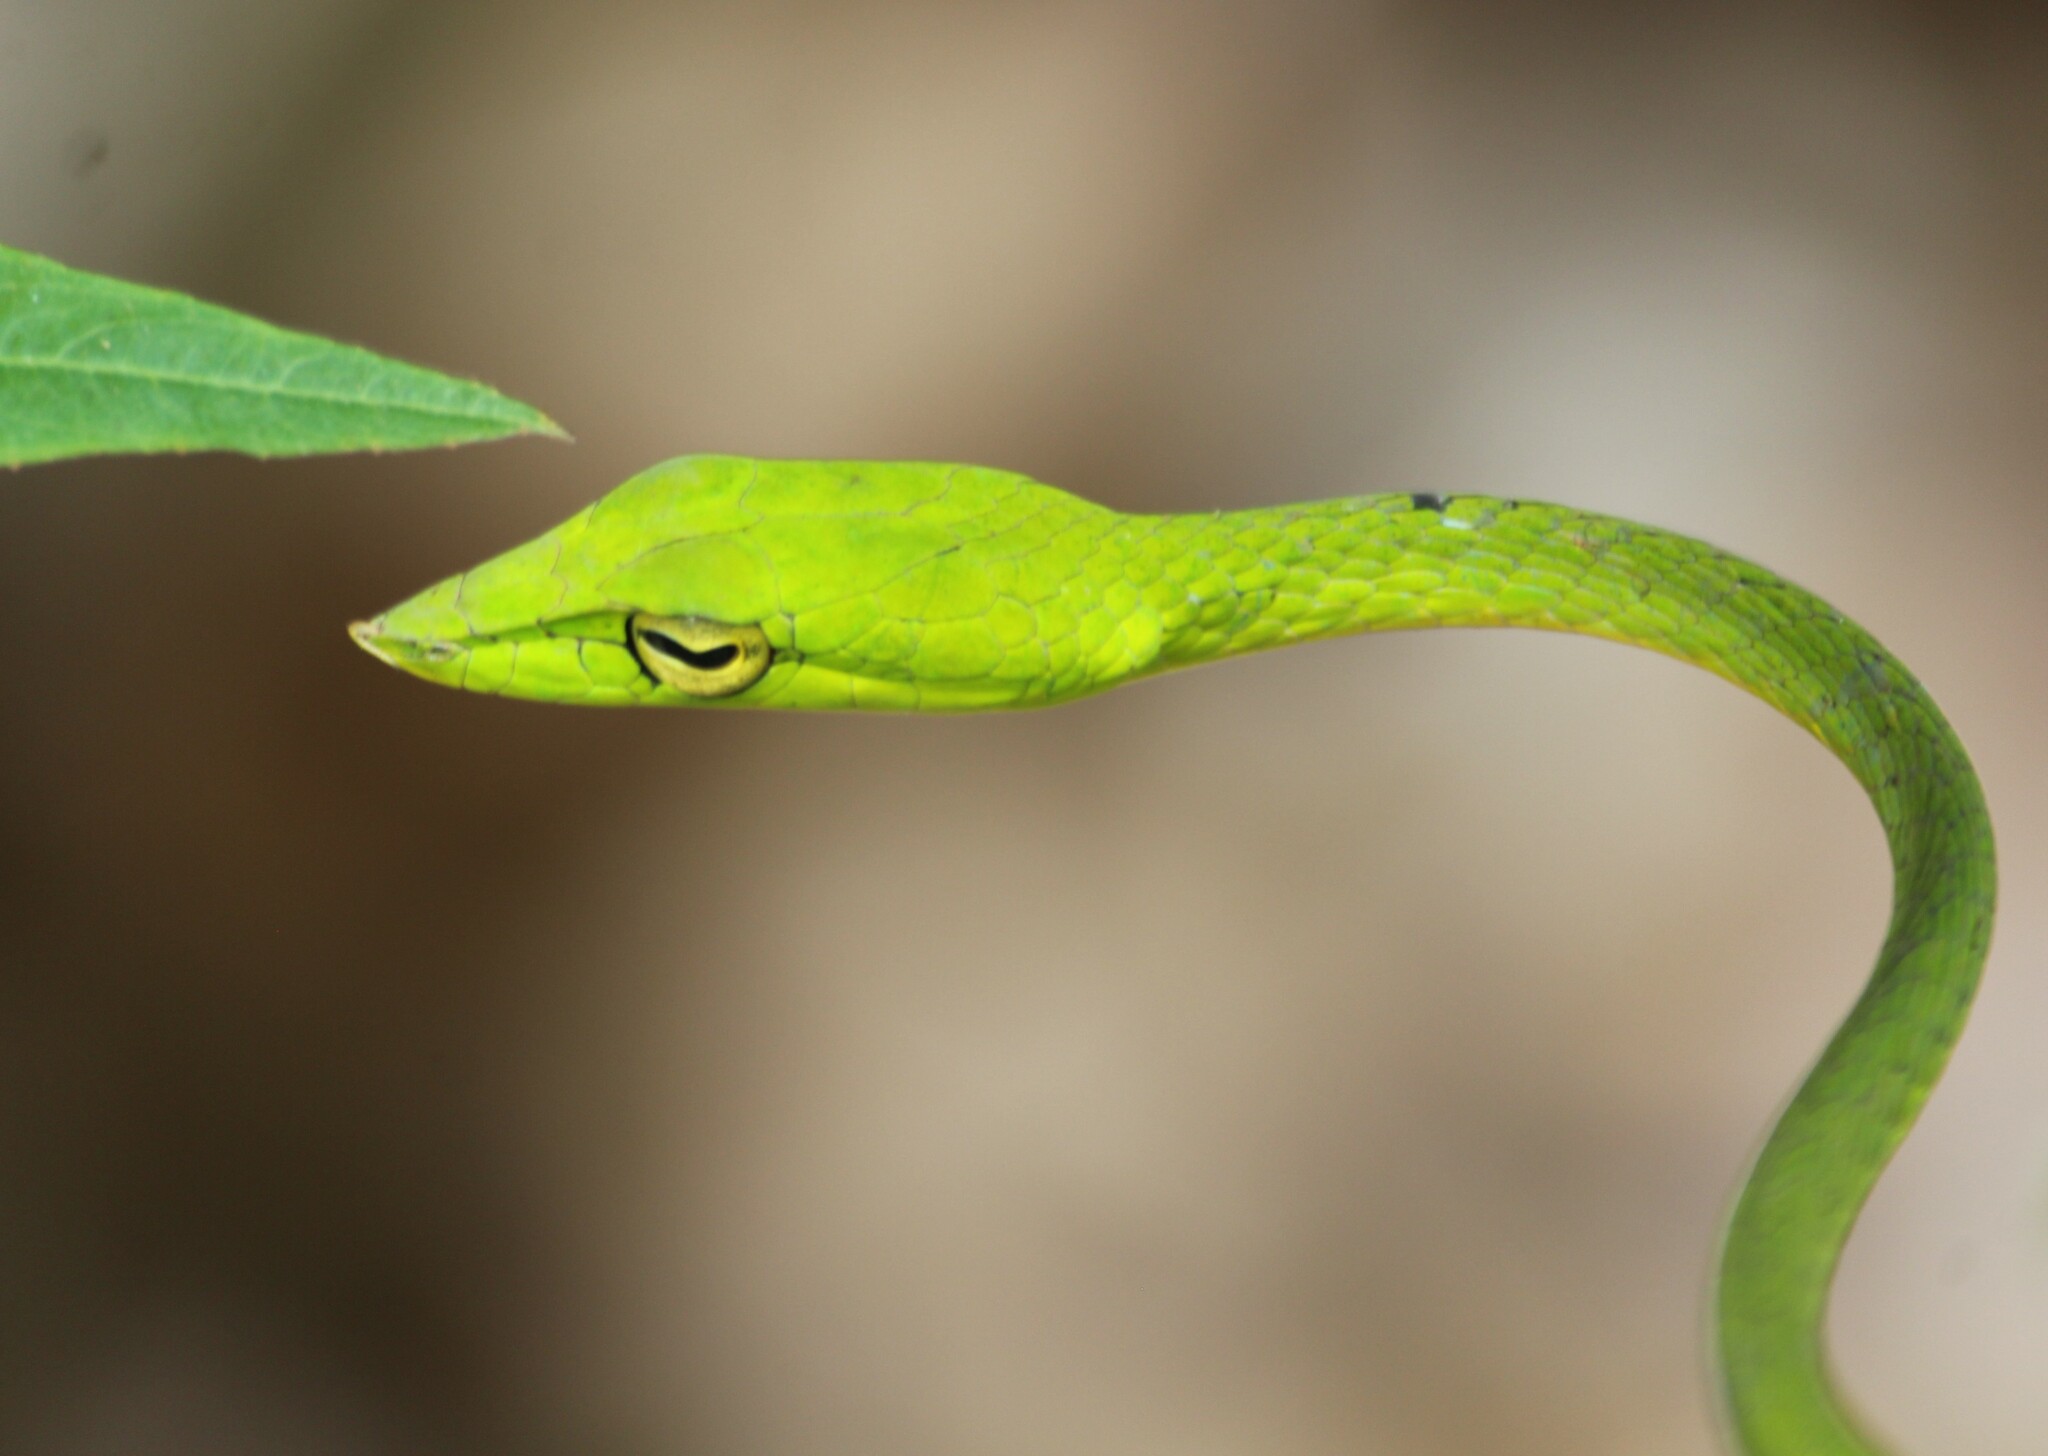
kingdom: Animalia
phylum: Chordata
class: Squamata
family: Colubridae
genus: Ahaetulla
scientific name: Ahaetulla farnsworthi
